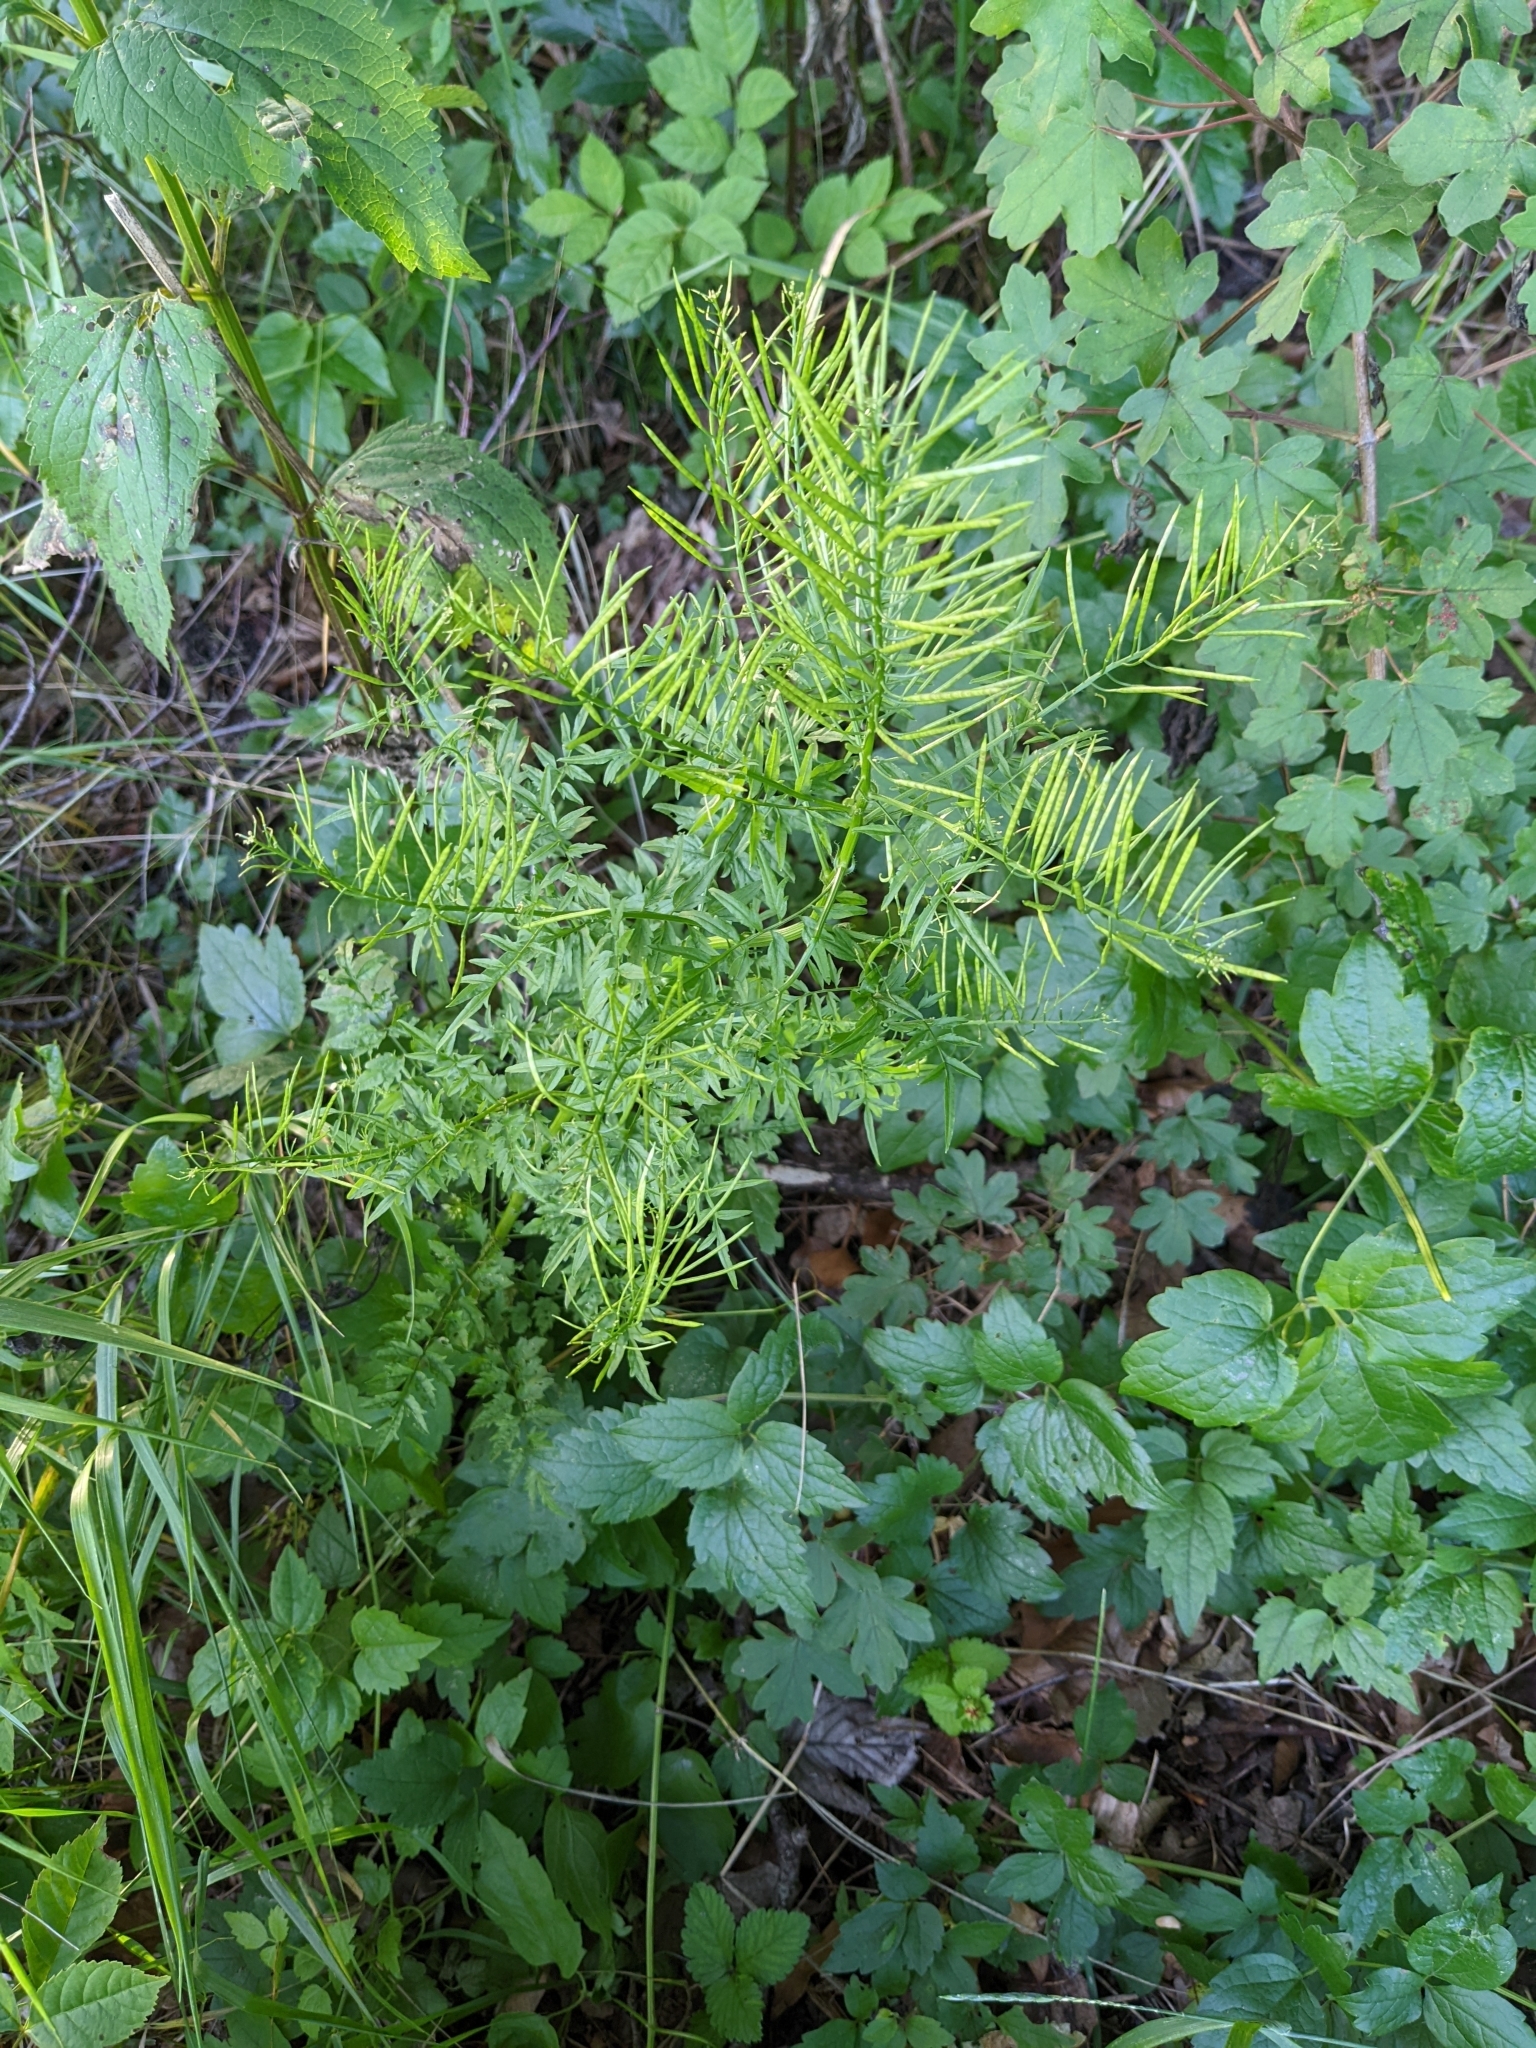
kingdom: Plantae
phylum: Tracheophyta
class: Magnoliopsida
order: Brassicales
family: Brassicaceae
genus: Cardamine
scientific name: Cardamine impatiens
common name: Narrow-leaved bitter-cress
